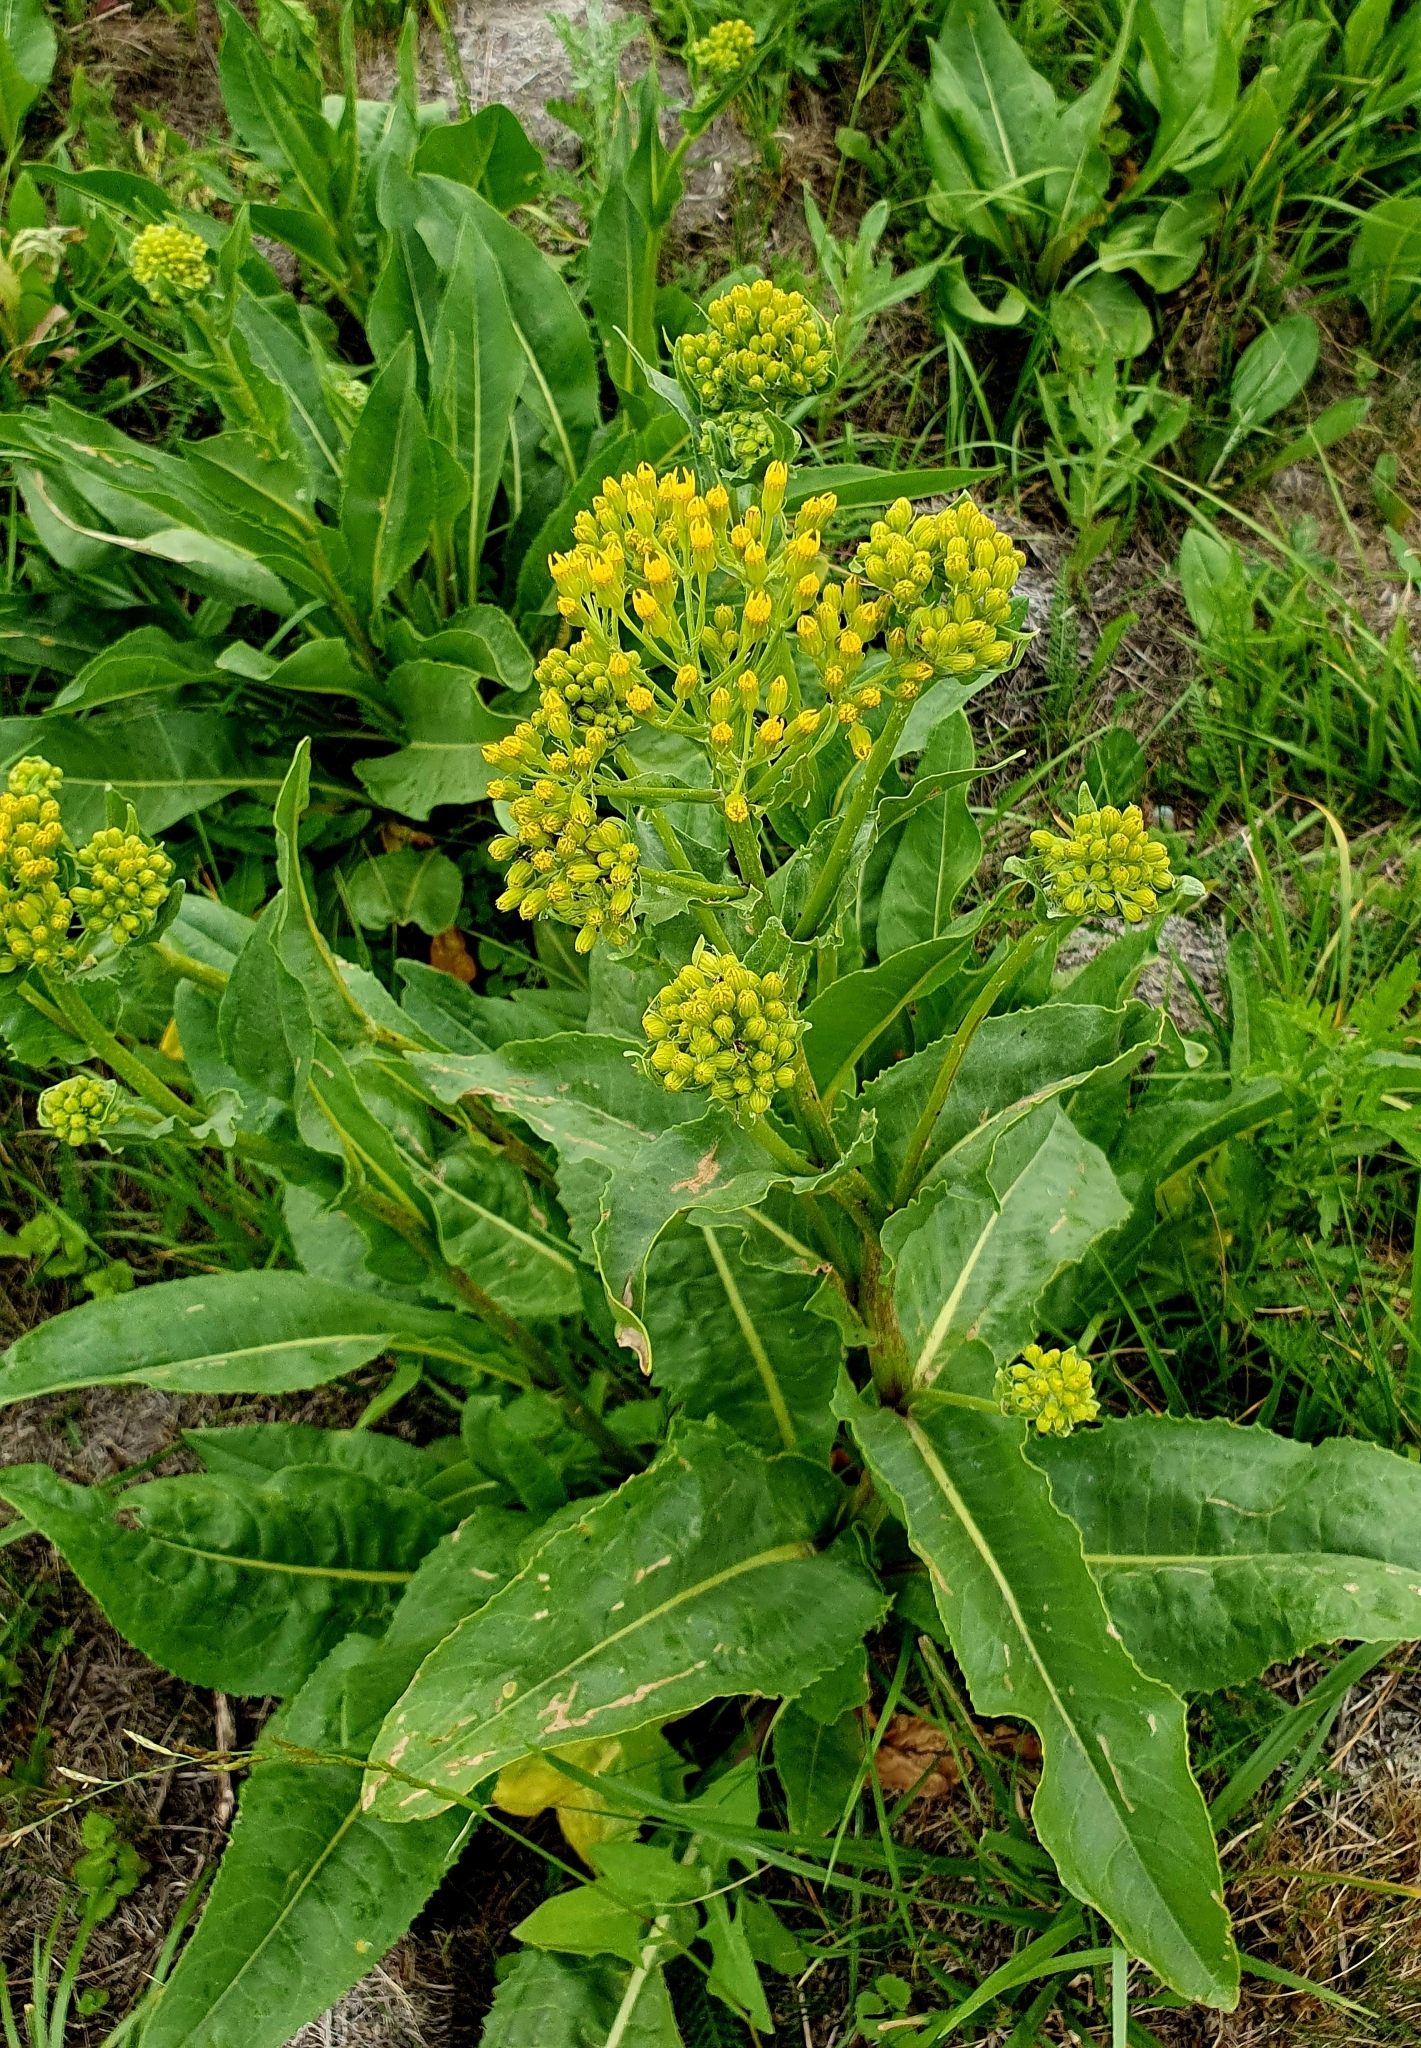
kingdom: Plantae
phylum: Tracheophyta
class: Magnoliopsida
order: Asterales
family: Asteraceae
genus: Senecio
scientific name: Senecio doria
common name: Golden ragwort
